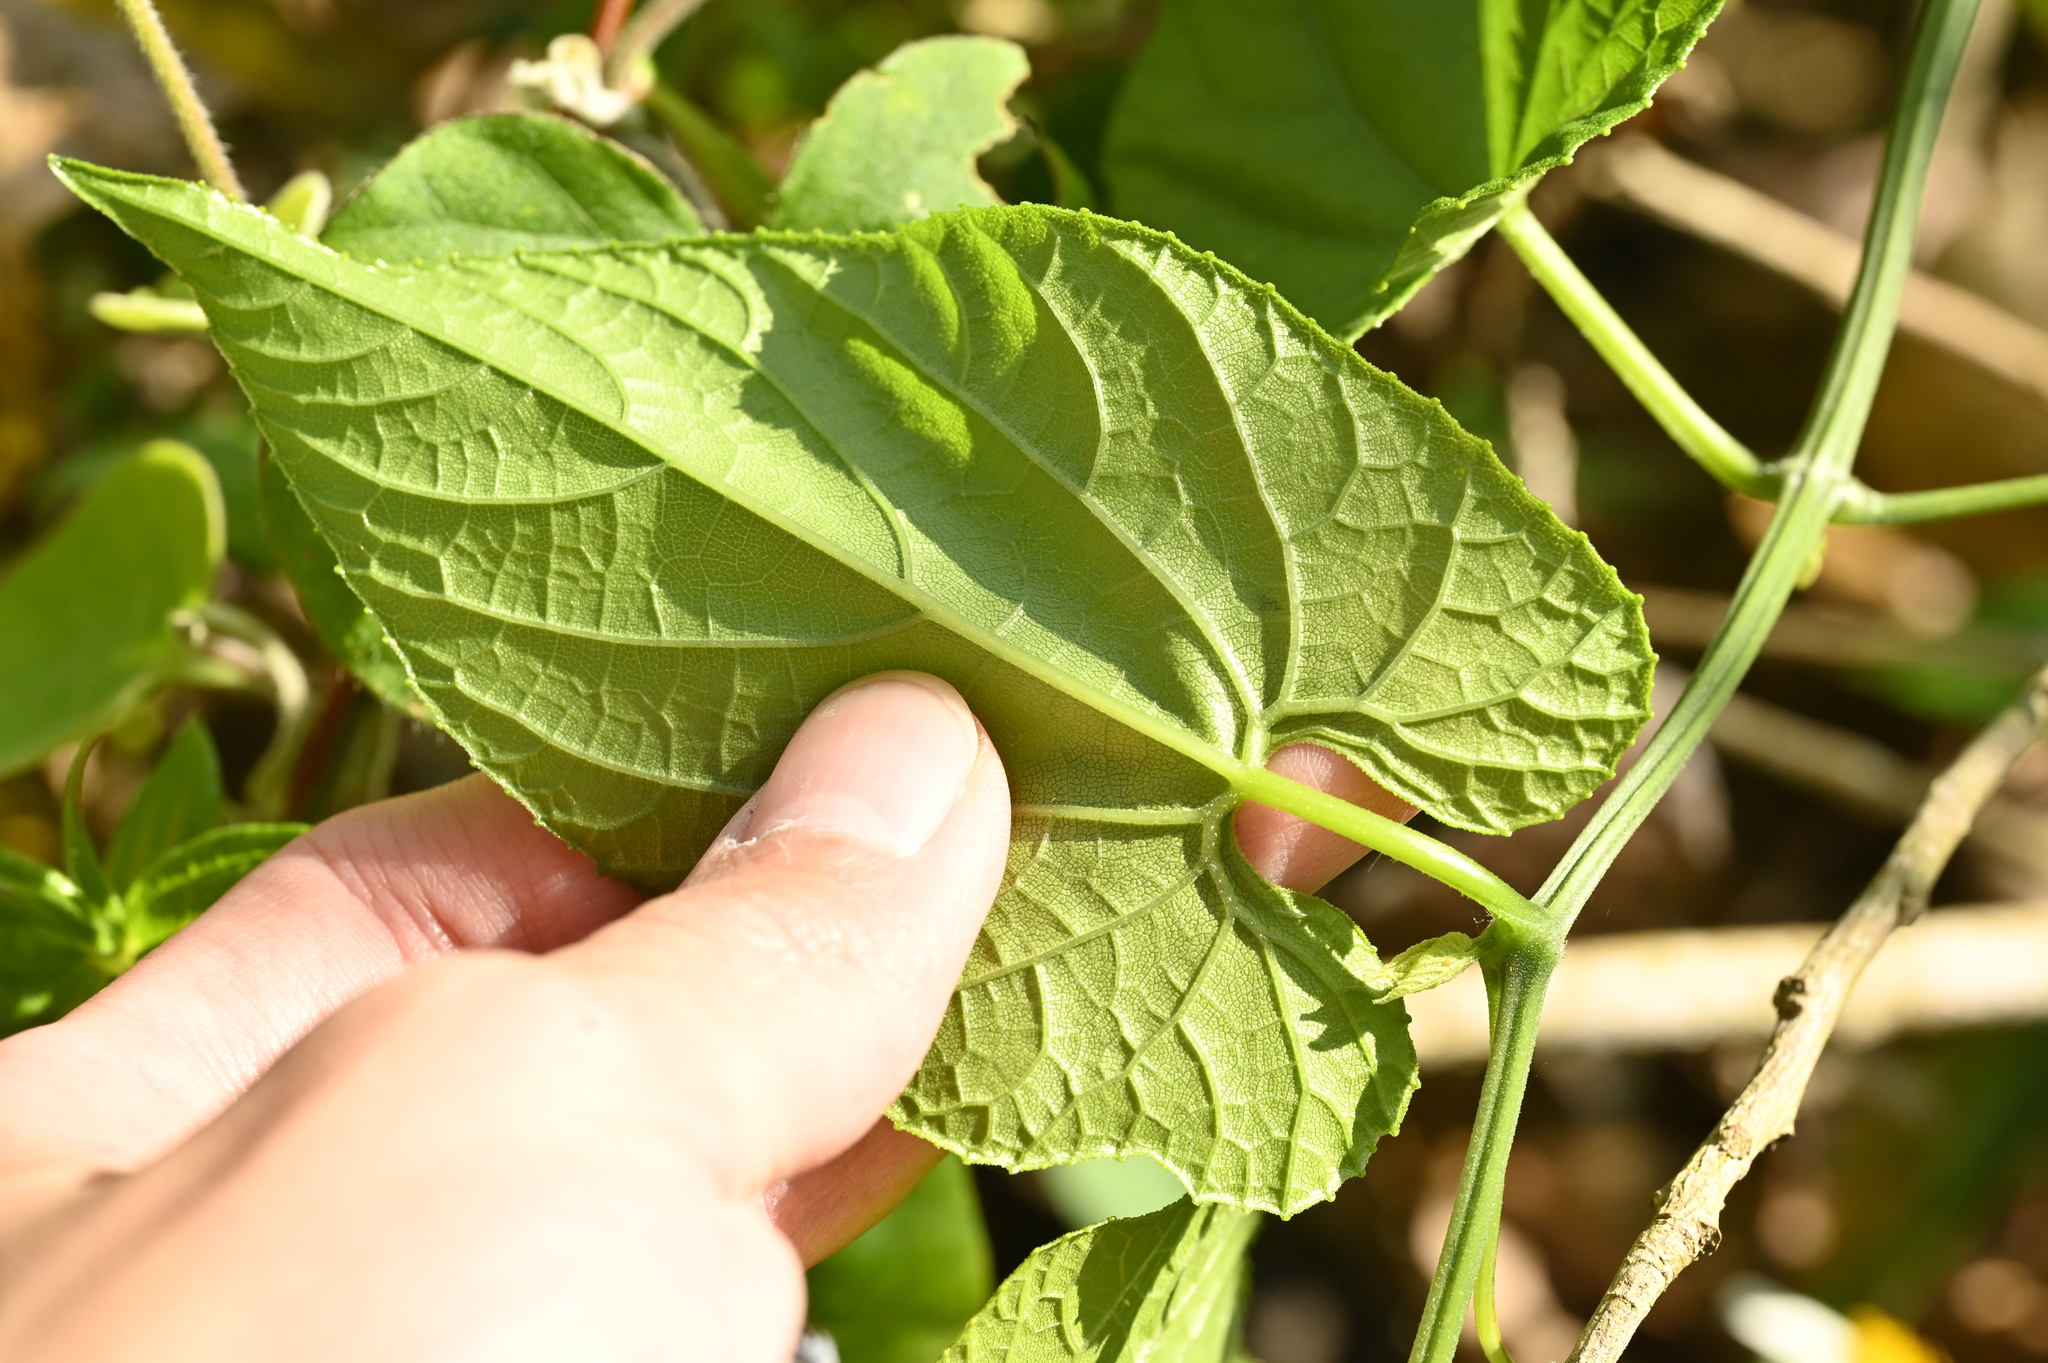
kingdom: Plantae
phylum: Tracheophyta
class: Magnoliopsida
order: Cucurbitales
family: Cucurbitaceae
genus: Thladiantha
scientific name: Thladiantha punctata
